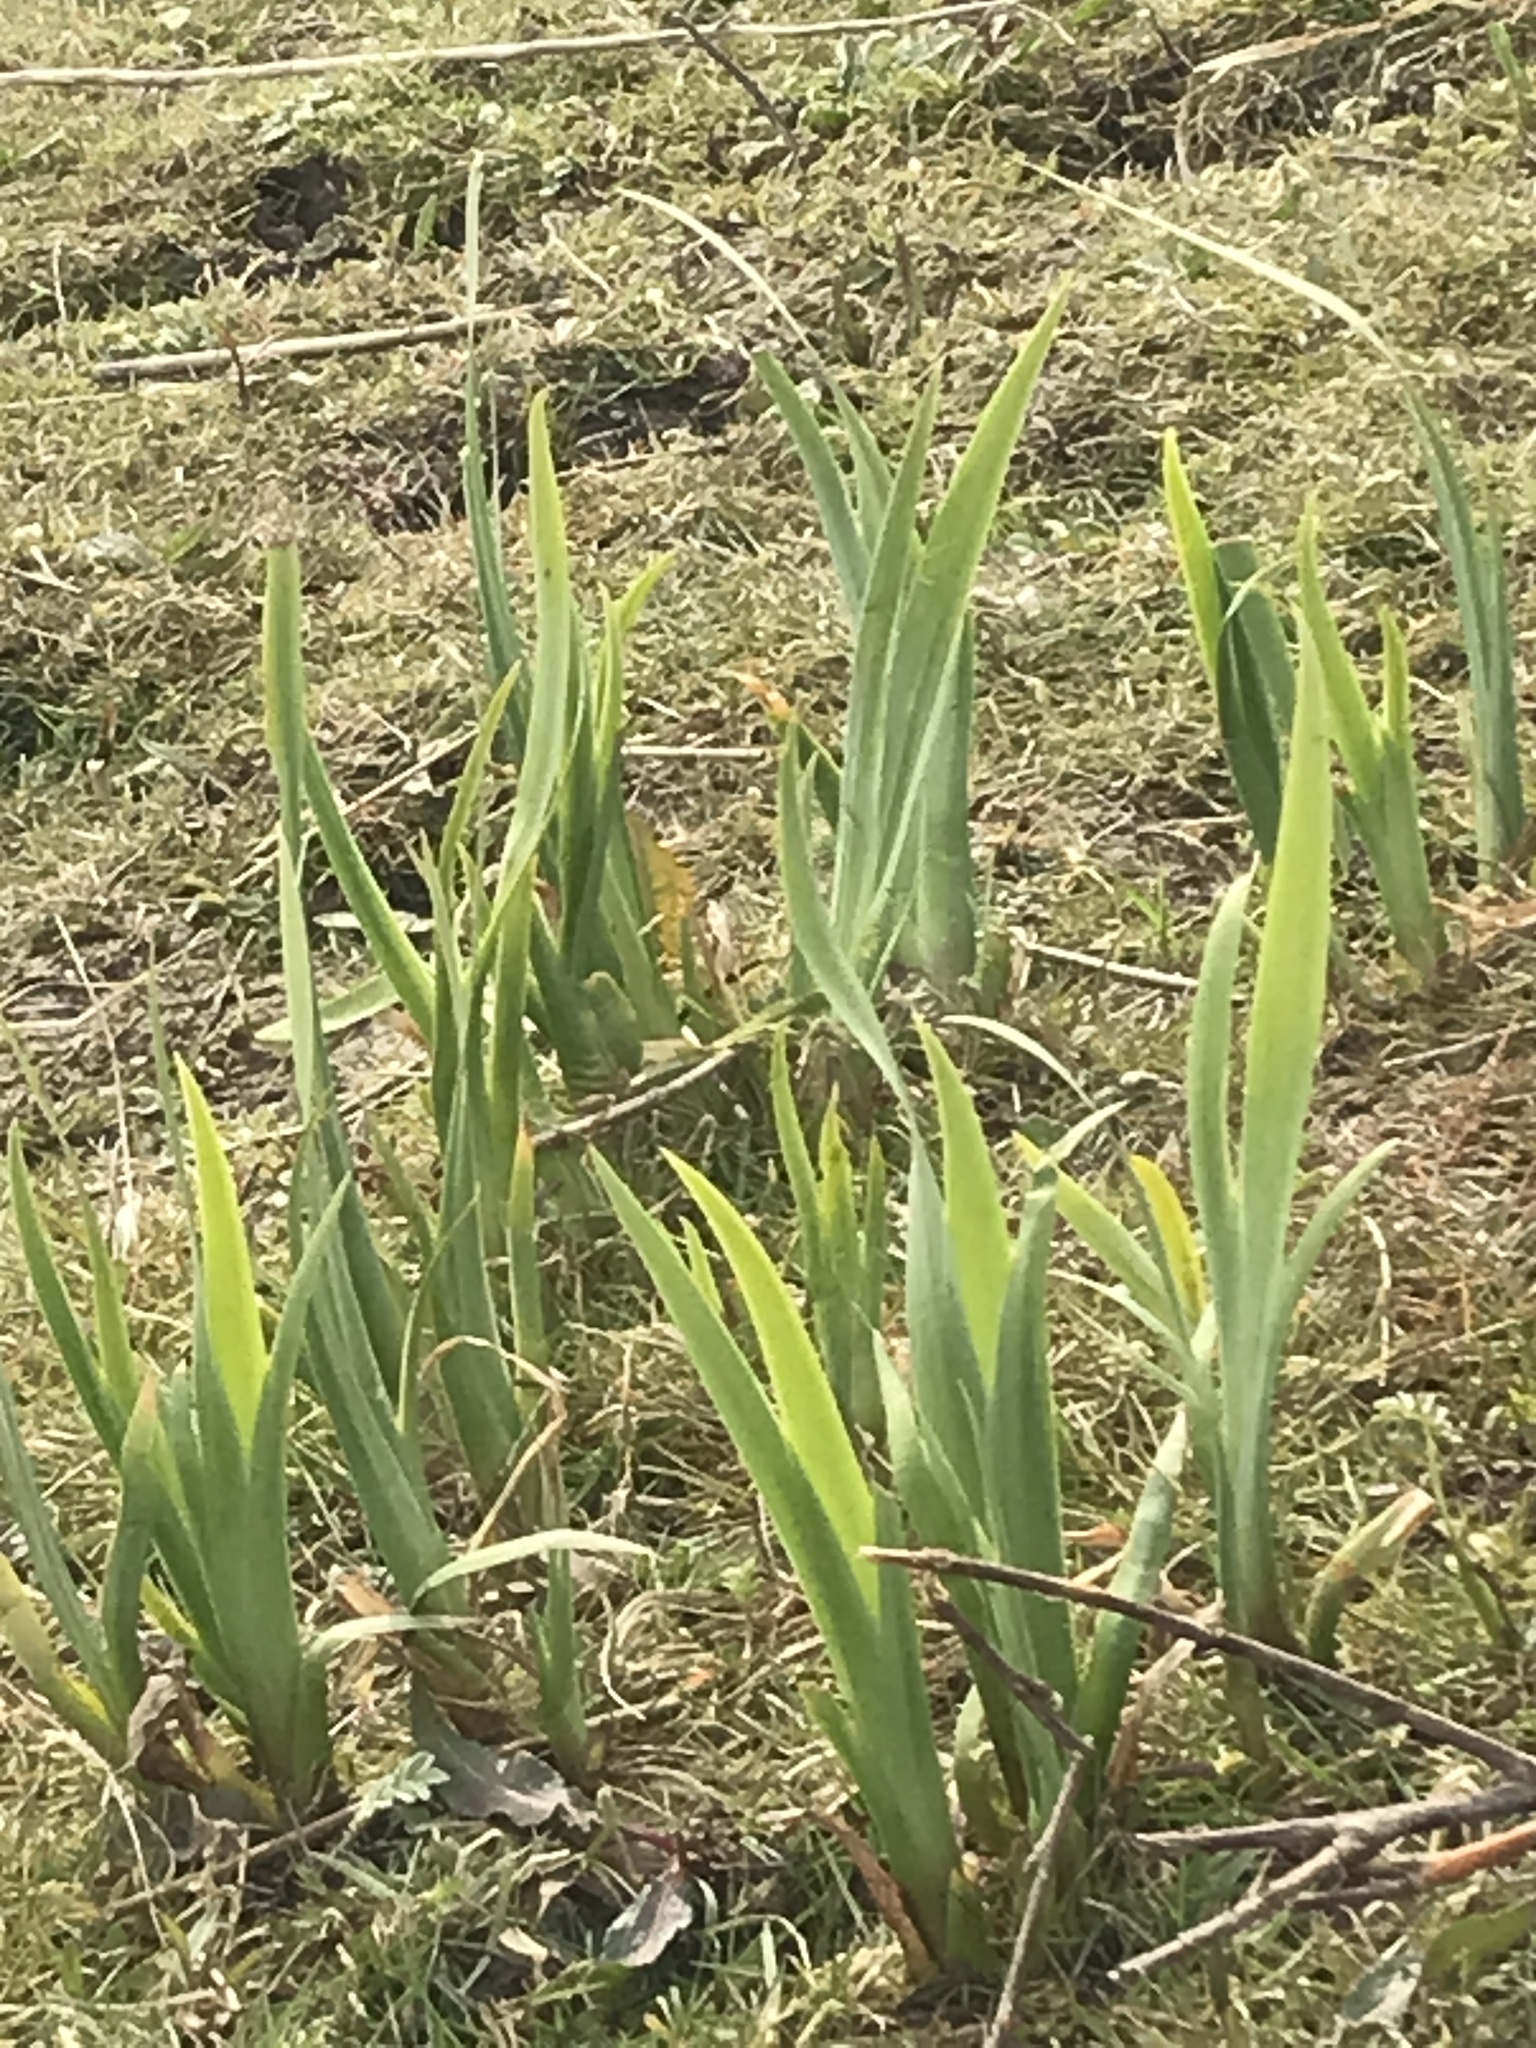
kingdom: Plantae
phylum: Tracheophyta
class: Liliopsida
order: Asparagales
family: Iridaceae
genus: Iris
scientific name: Iris pseudacorus
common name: Yellow flag
